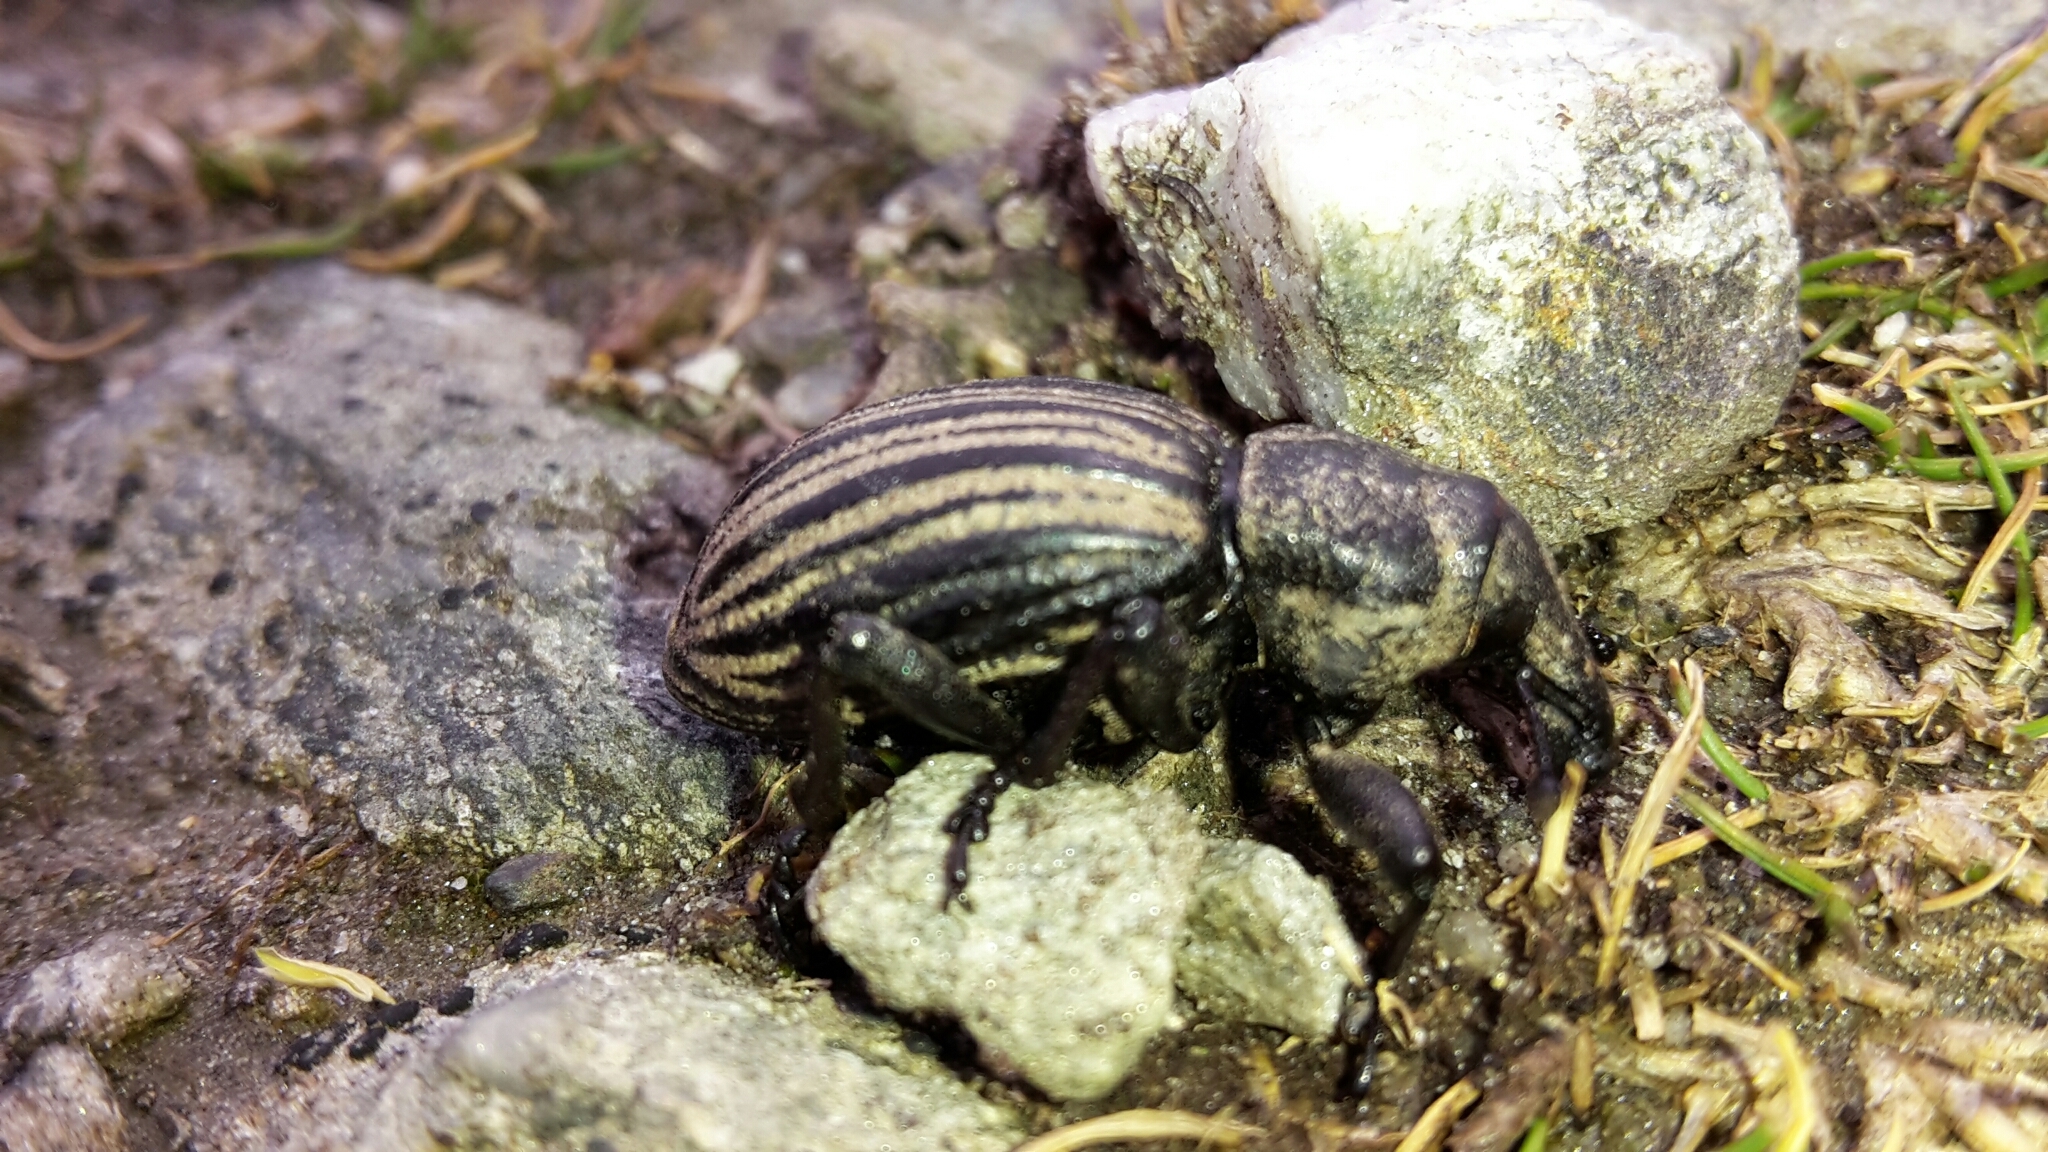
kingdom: Animalia
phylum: Arthropoda
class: Insecta
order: Coleoptera
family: Curculionidae
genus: Lyperobius
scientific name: Lyperobius cupiendus
